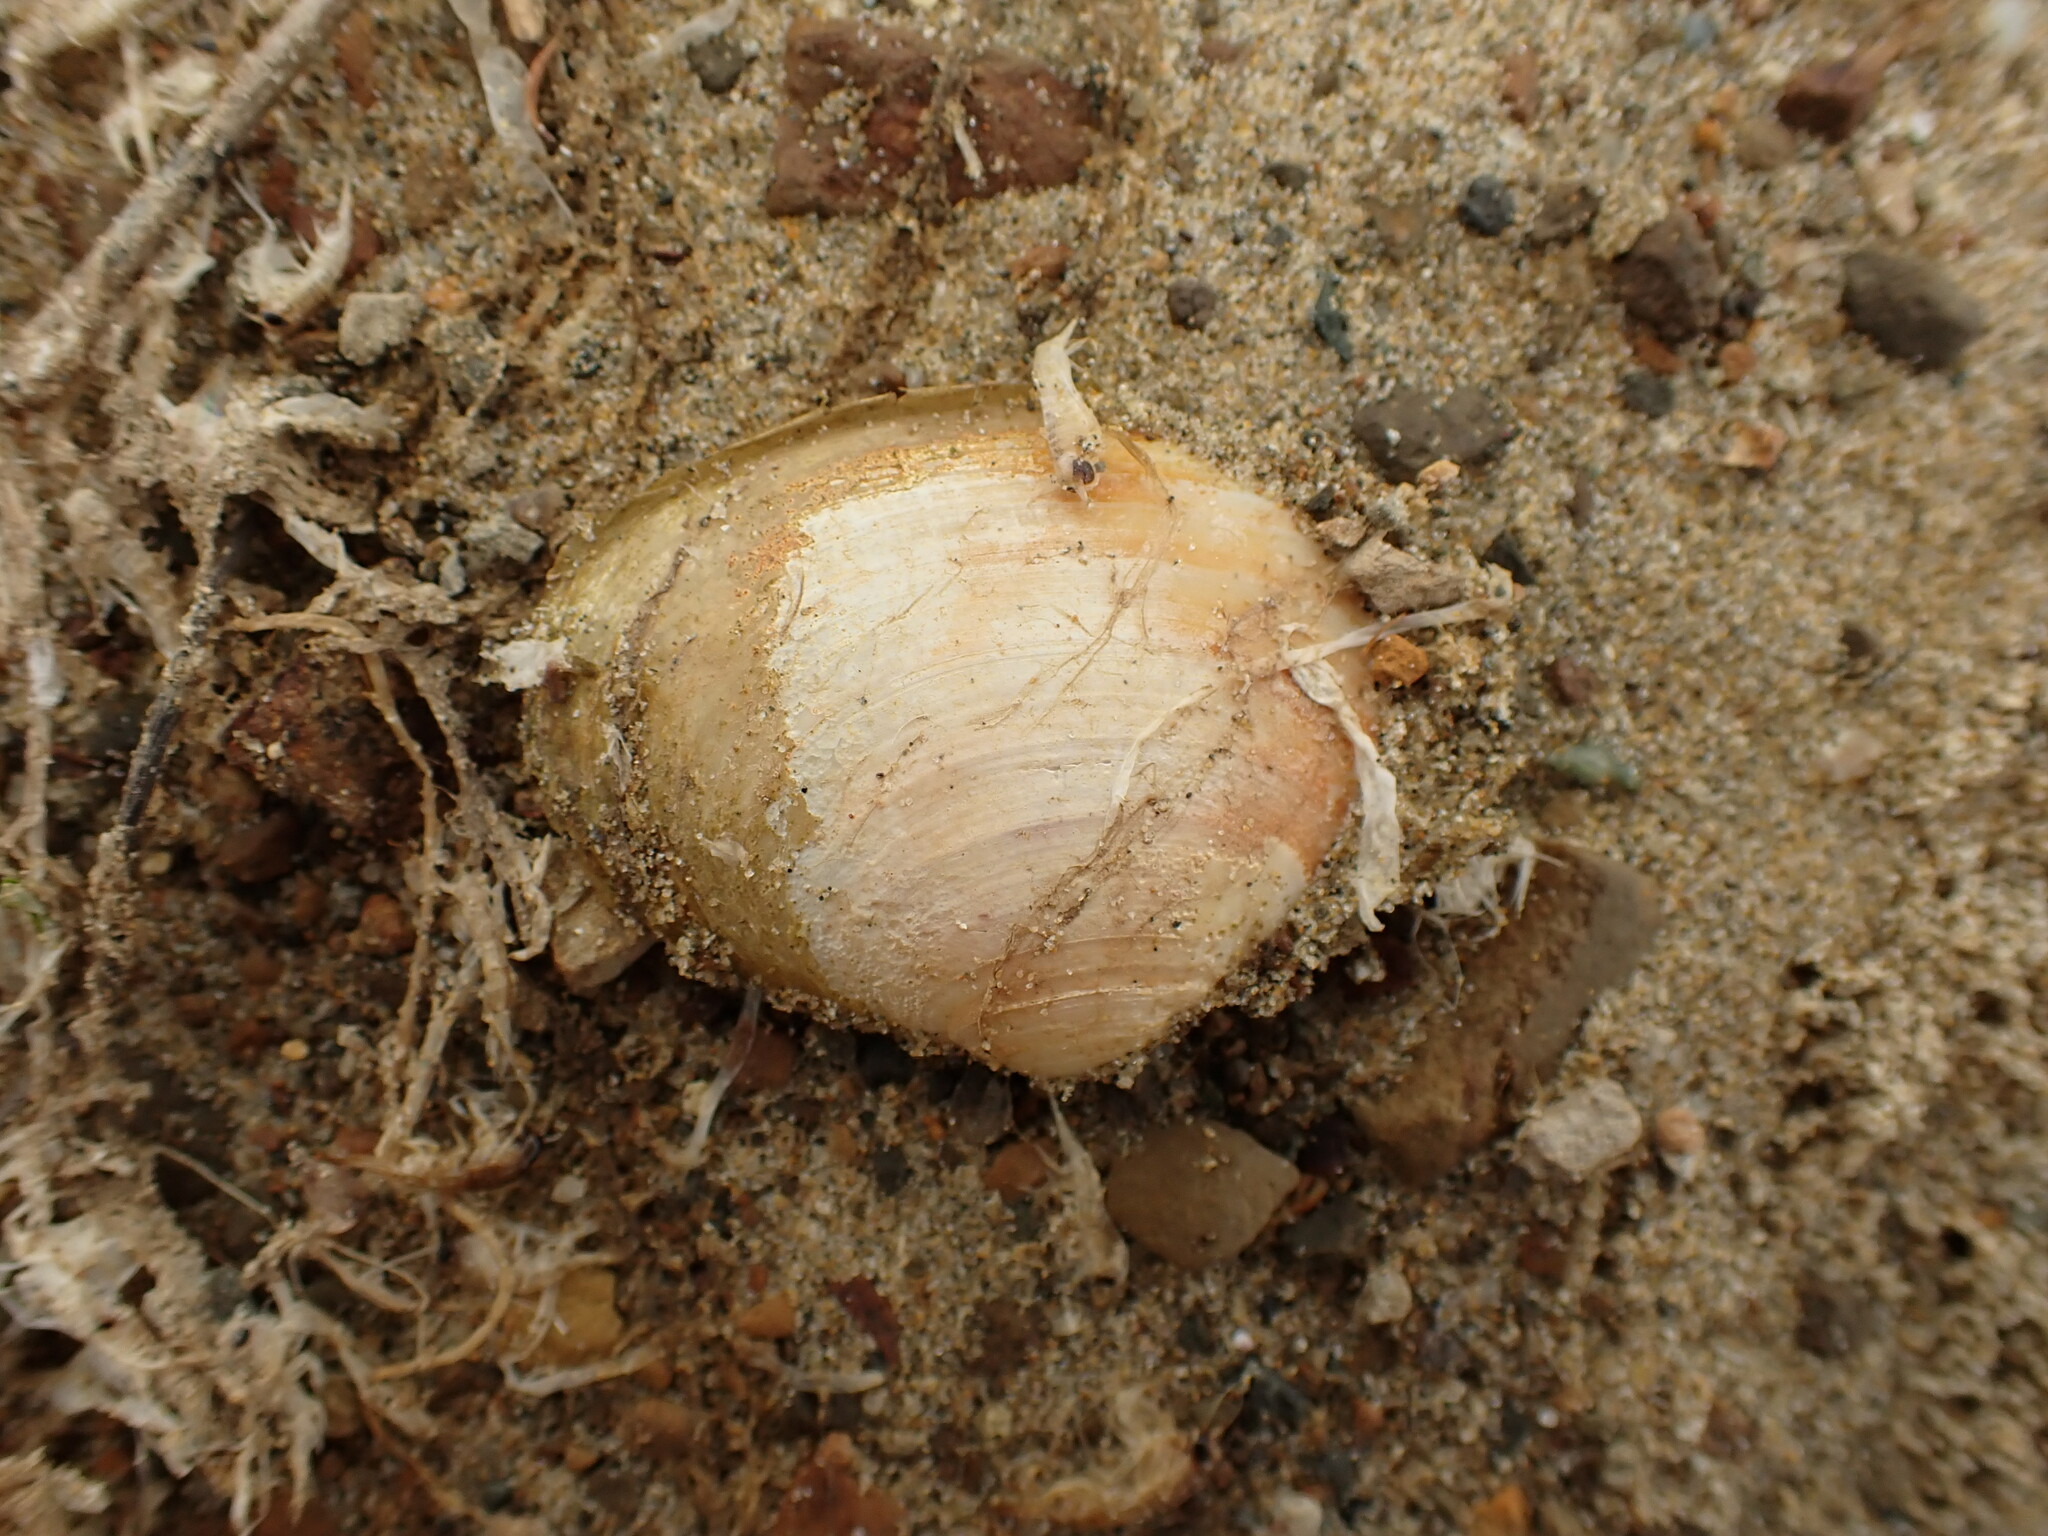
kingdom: Animalia
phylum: Mollusca
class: Bivalvia
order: Venerida
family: Mesodesmatidae
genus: Paphies
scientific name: Paphies australis
